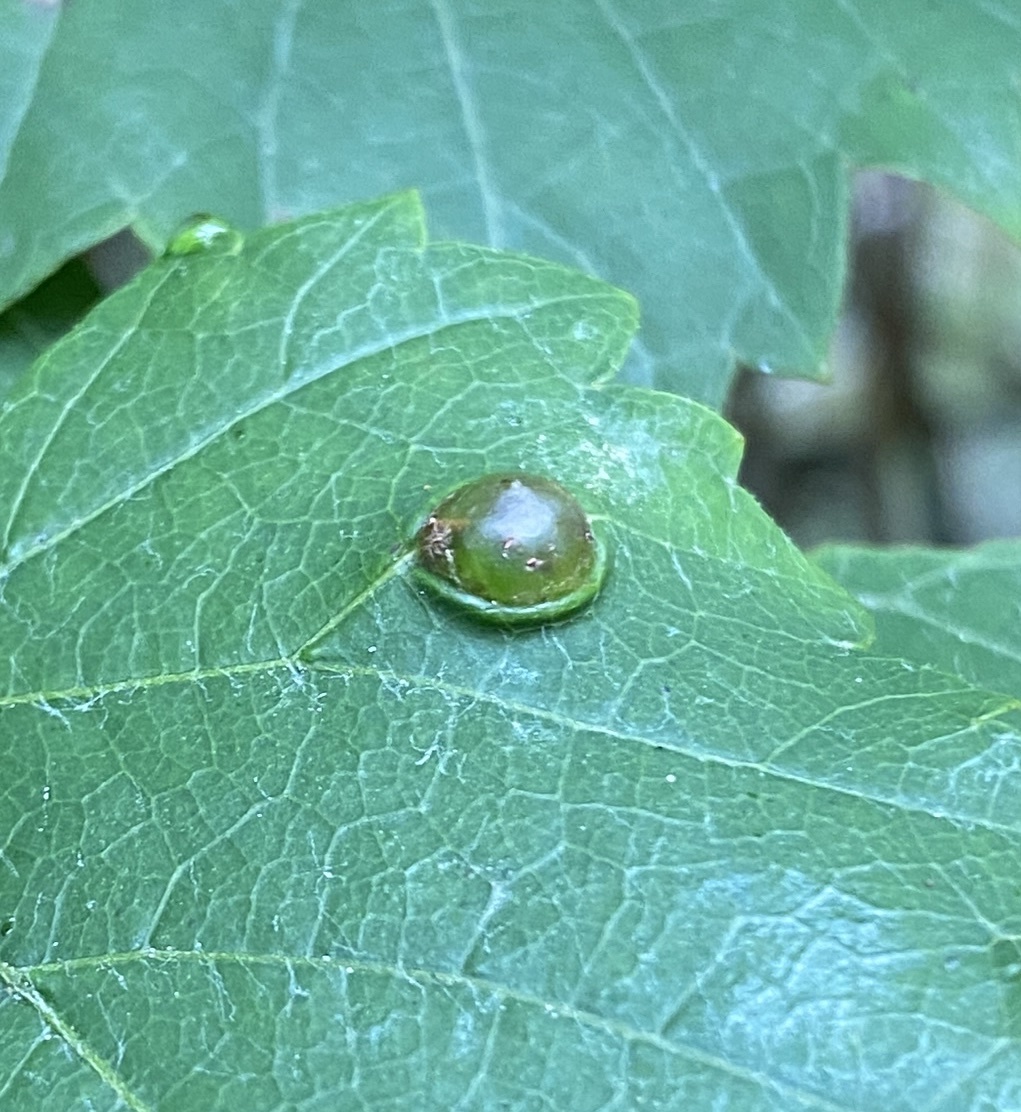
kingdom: Animalia
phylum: Arthropoda
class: Insecta
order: Diptera
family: Cecidomyiidae
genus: Vitisiella
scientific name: Vitisiella brevicauda
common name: Grape tumid gallmaker midge
